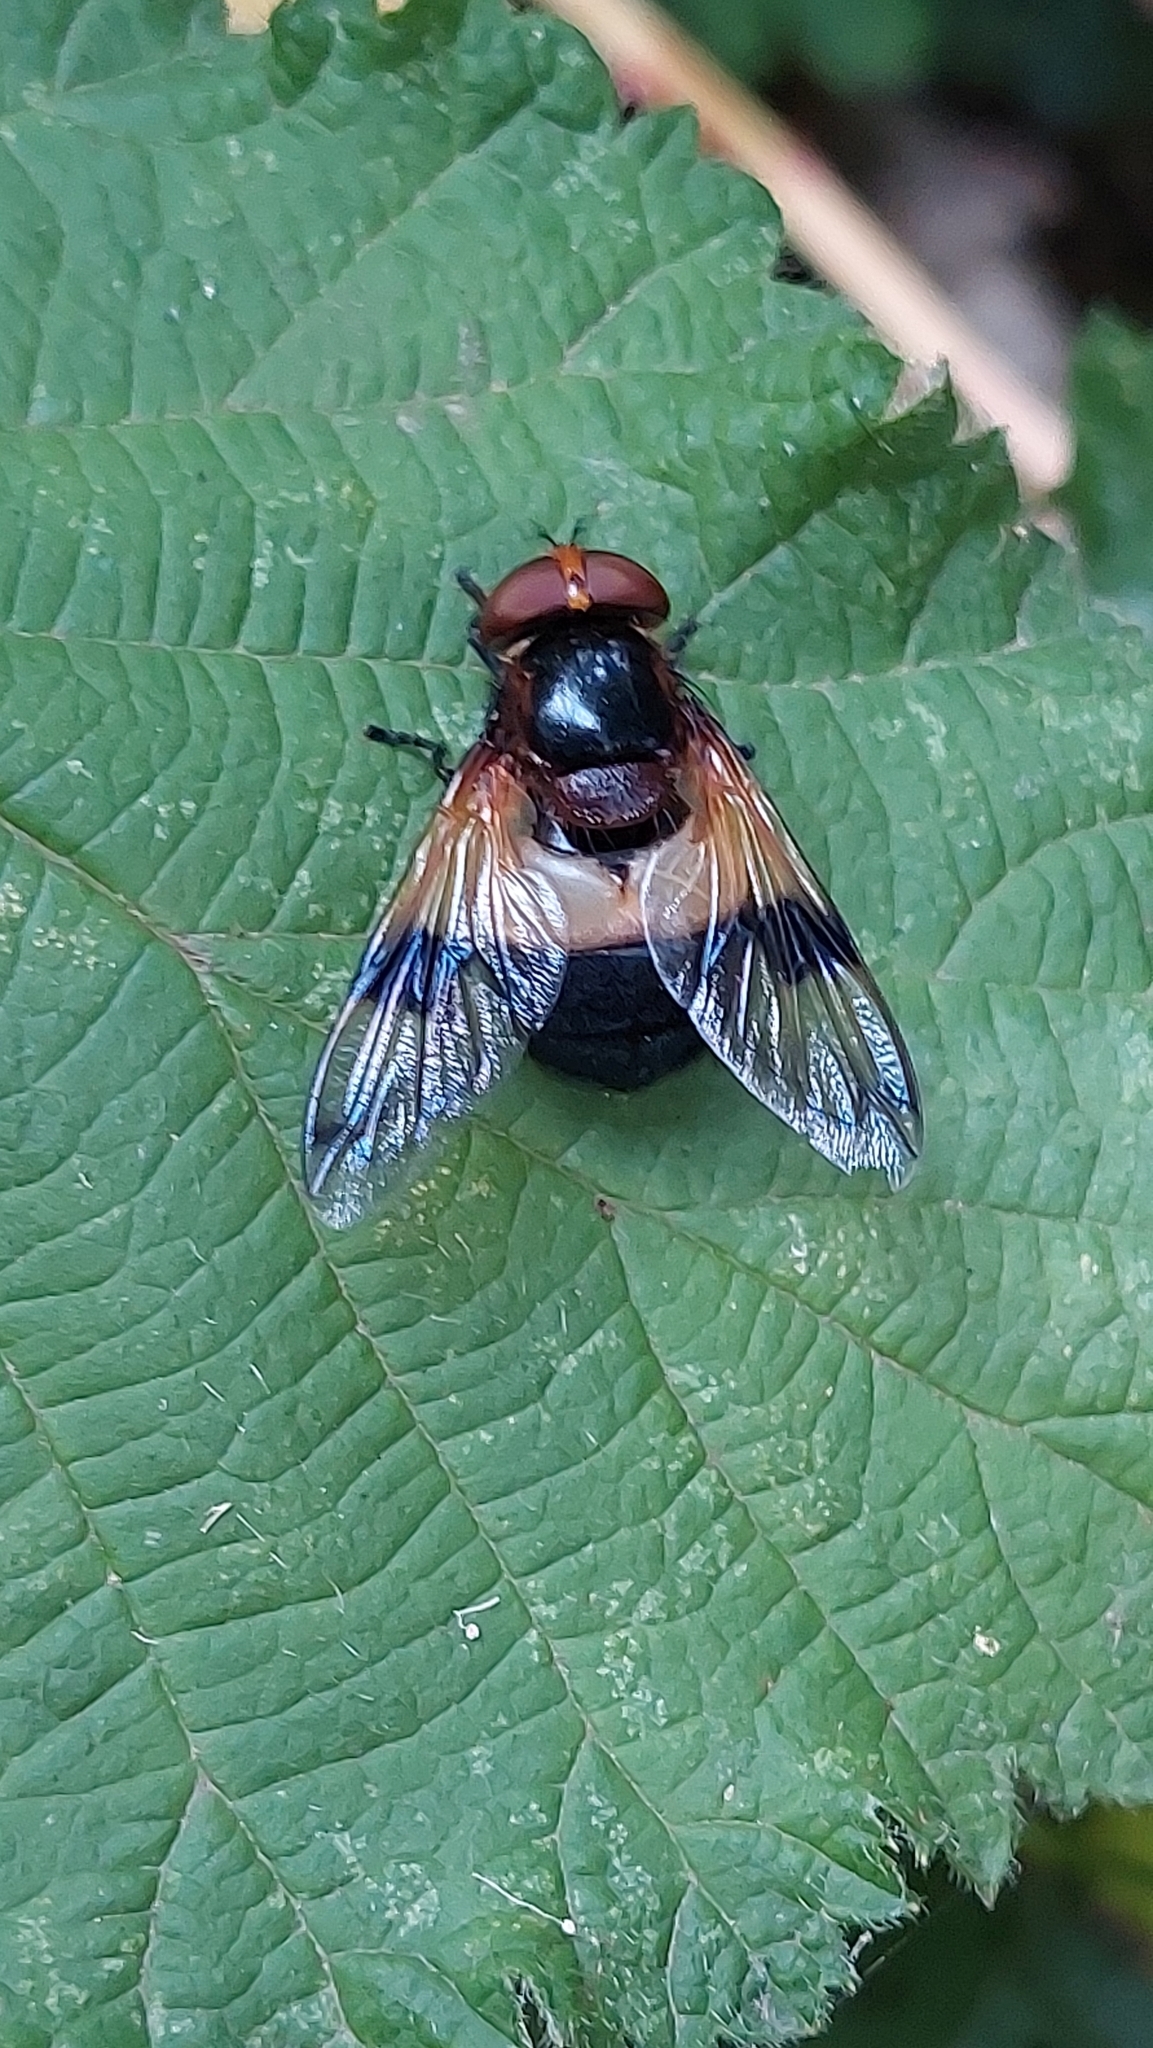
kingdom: Animalia
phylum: Arthropoda
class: Insecta
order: Diptera
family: Syrphidae
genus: Volucella
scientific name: Volucella pellucens
